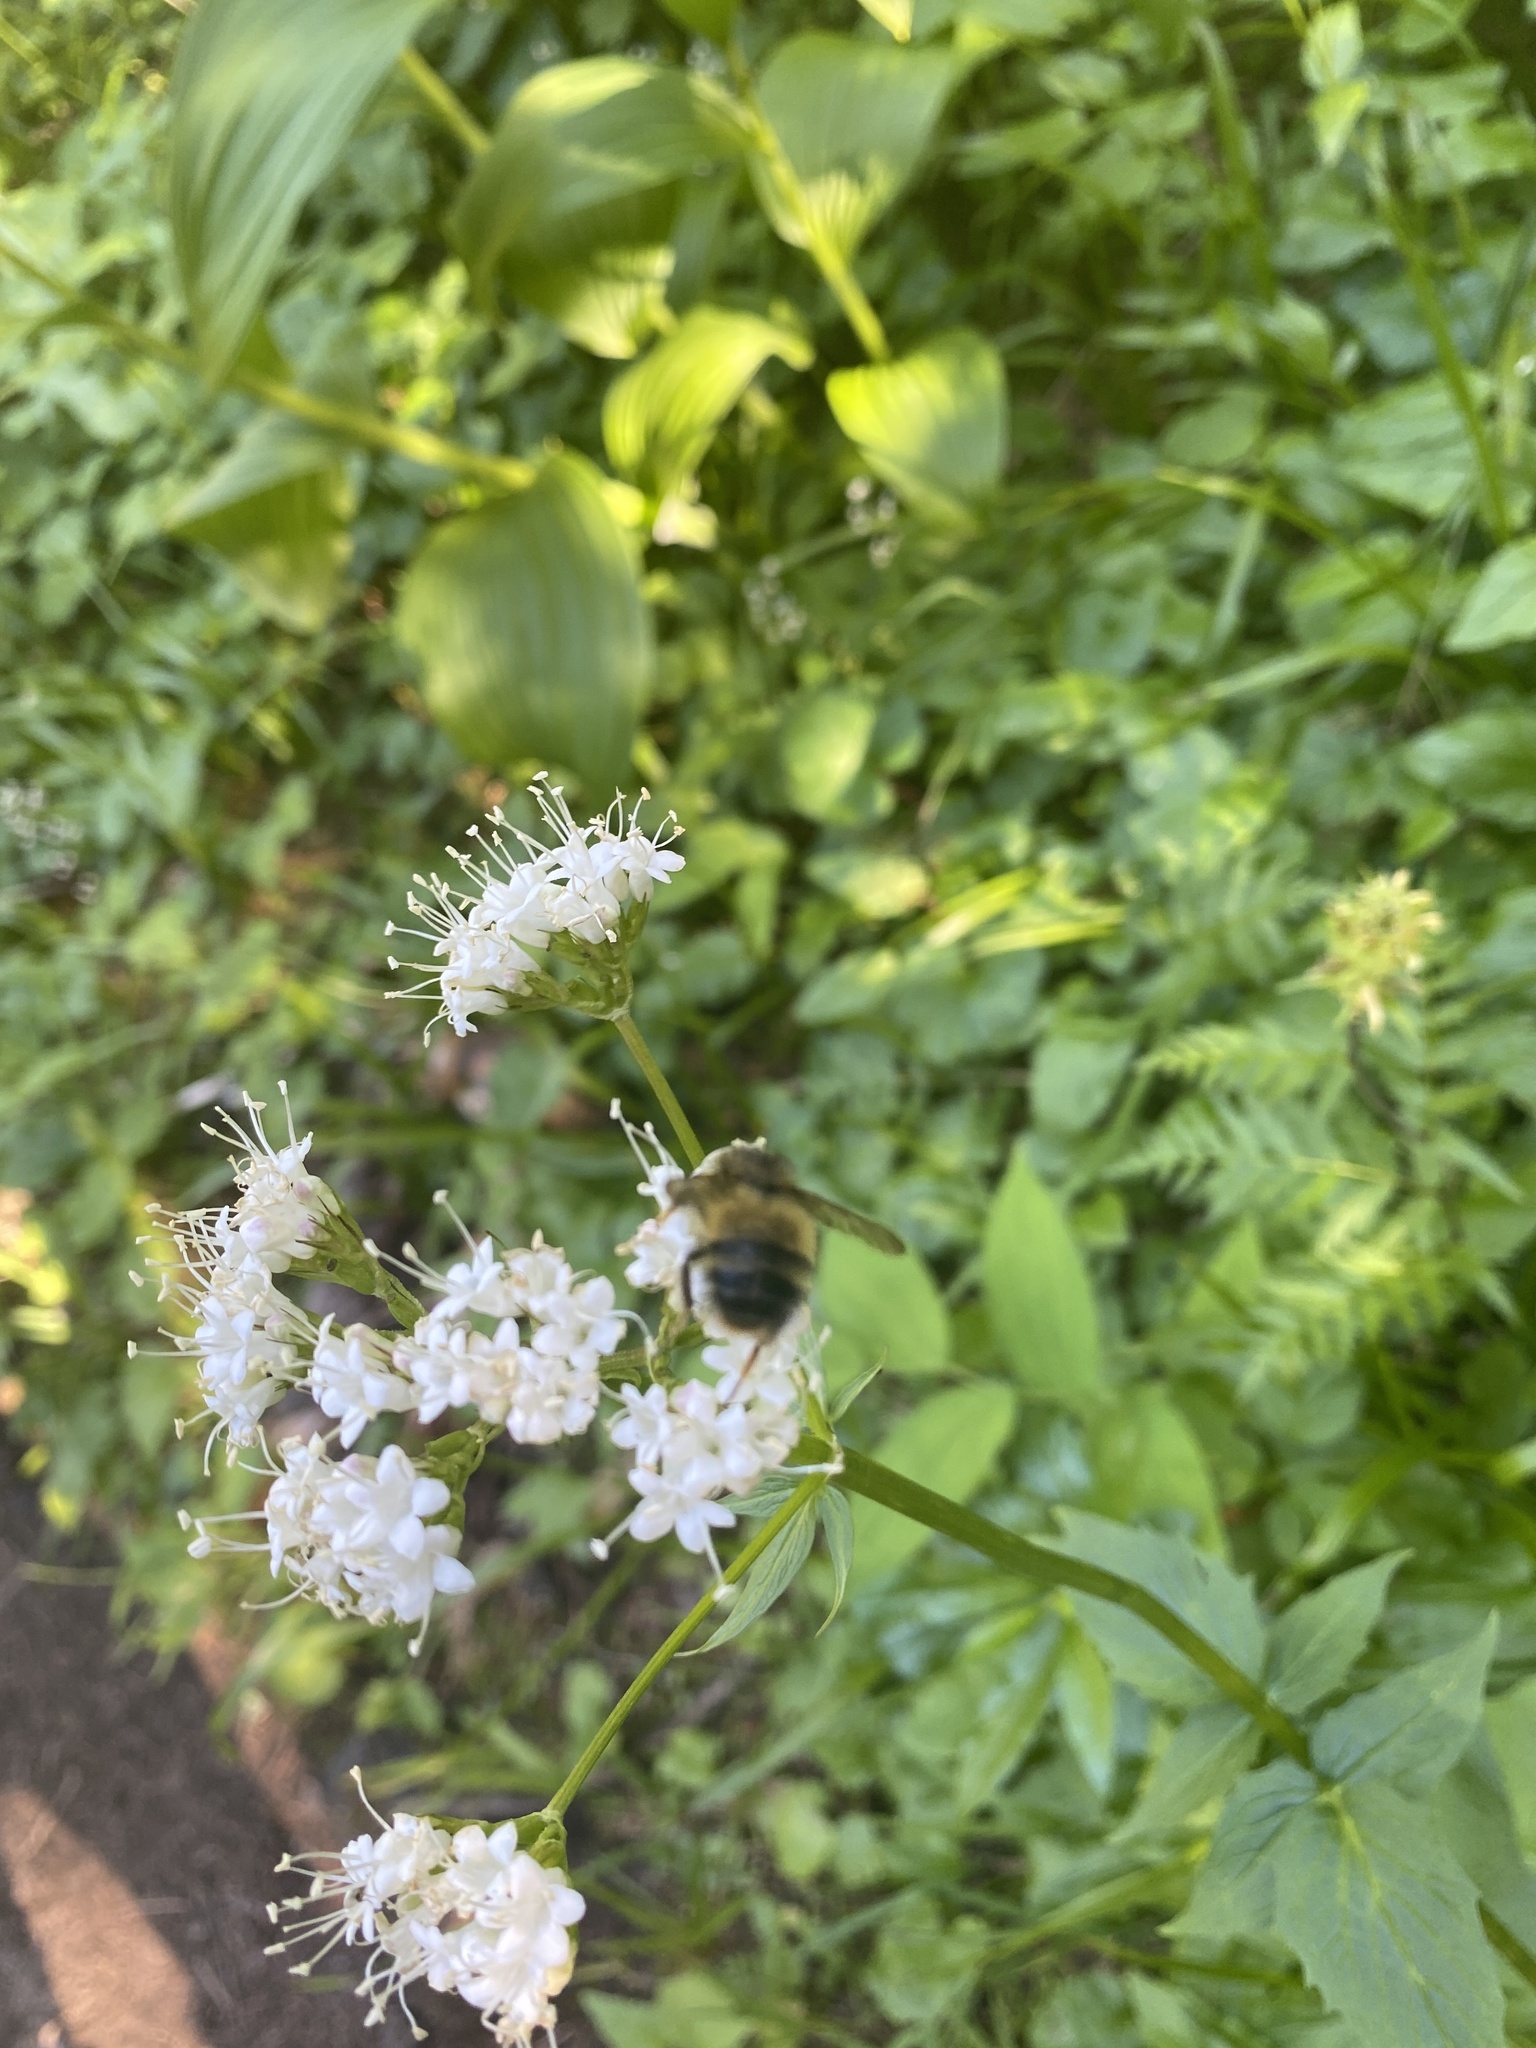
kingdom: Plantae
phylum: Tracheophyta
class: Magnoliopsida
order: Dipsacales
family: Caprifoliaceae
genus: Valeriana
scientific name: Valeriana sitchensis
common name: Pacific valerian
